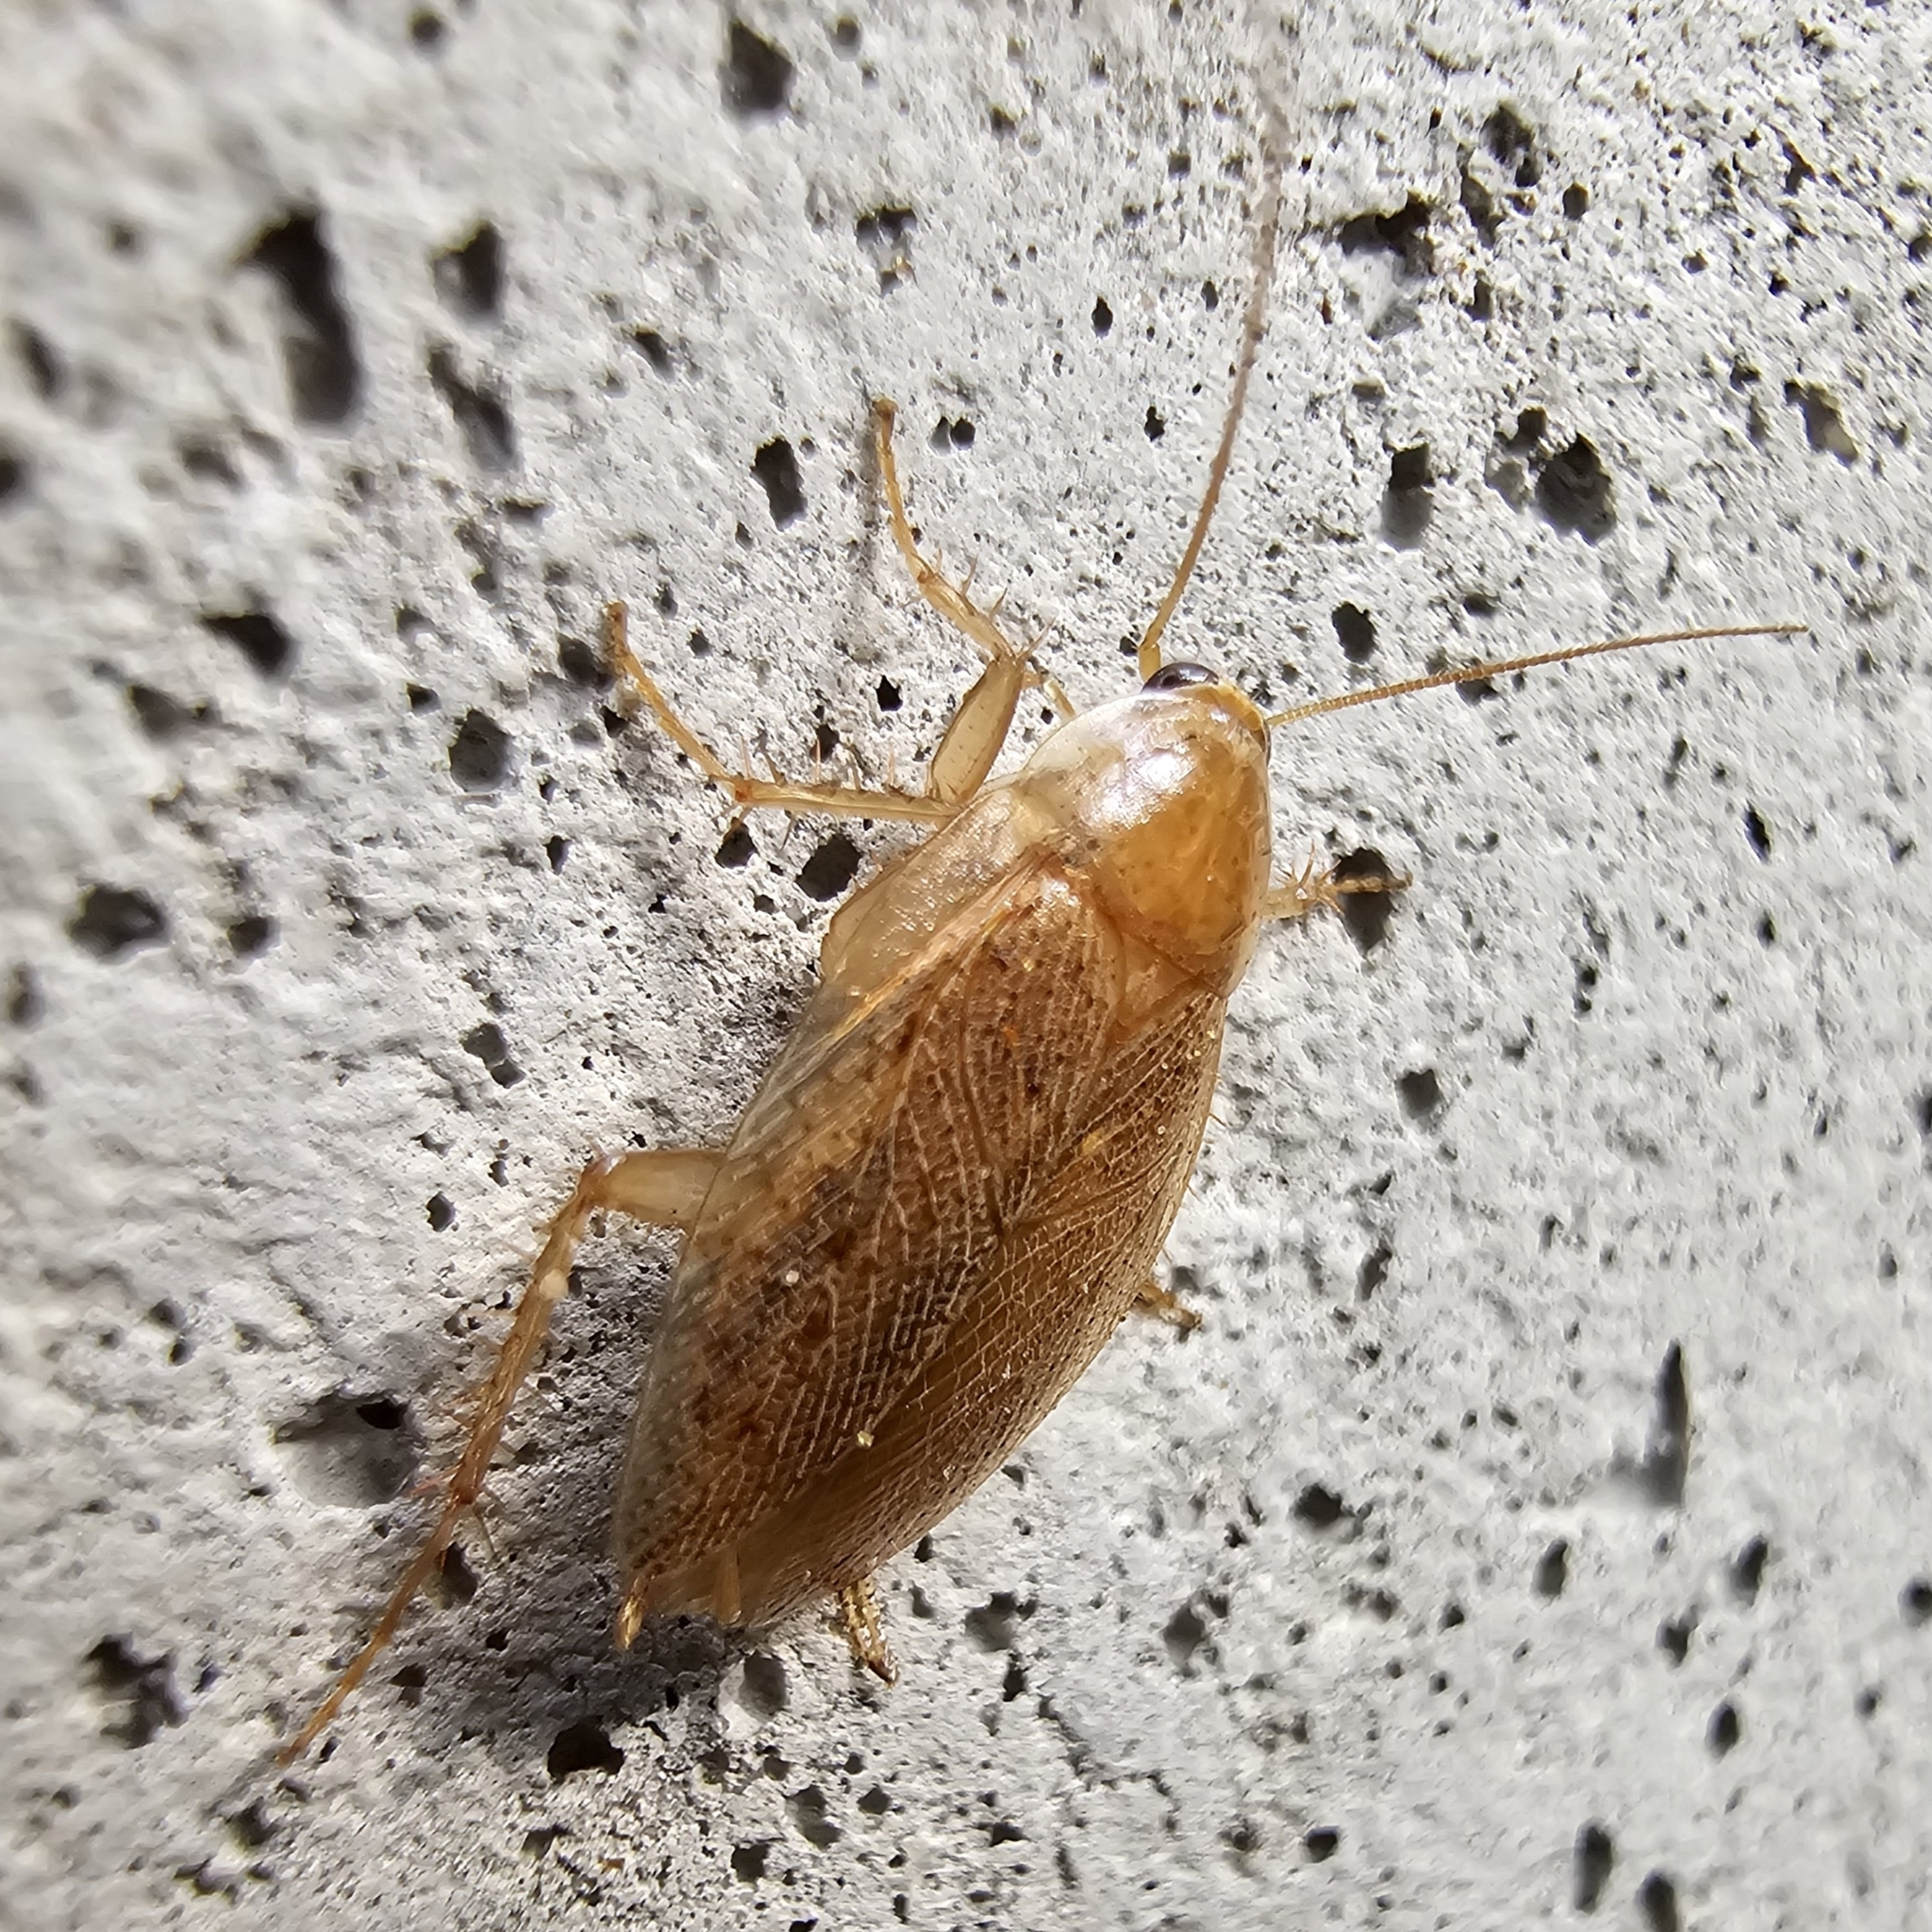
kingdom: Animalia
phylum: Arthropoda
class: Insecta
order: Blattodea
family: Ectobiidae
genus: Ectobius
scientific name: Ectobius pallidus
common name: Tawny cockroach
